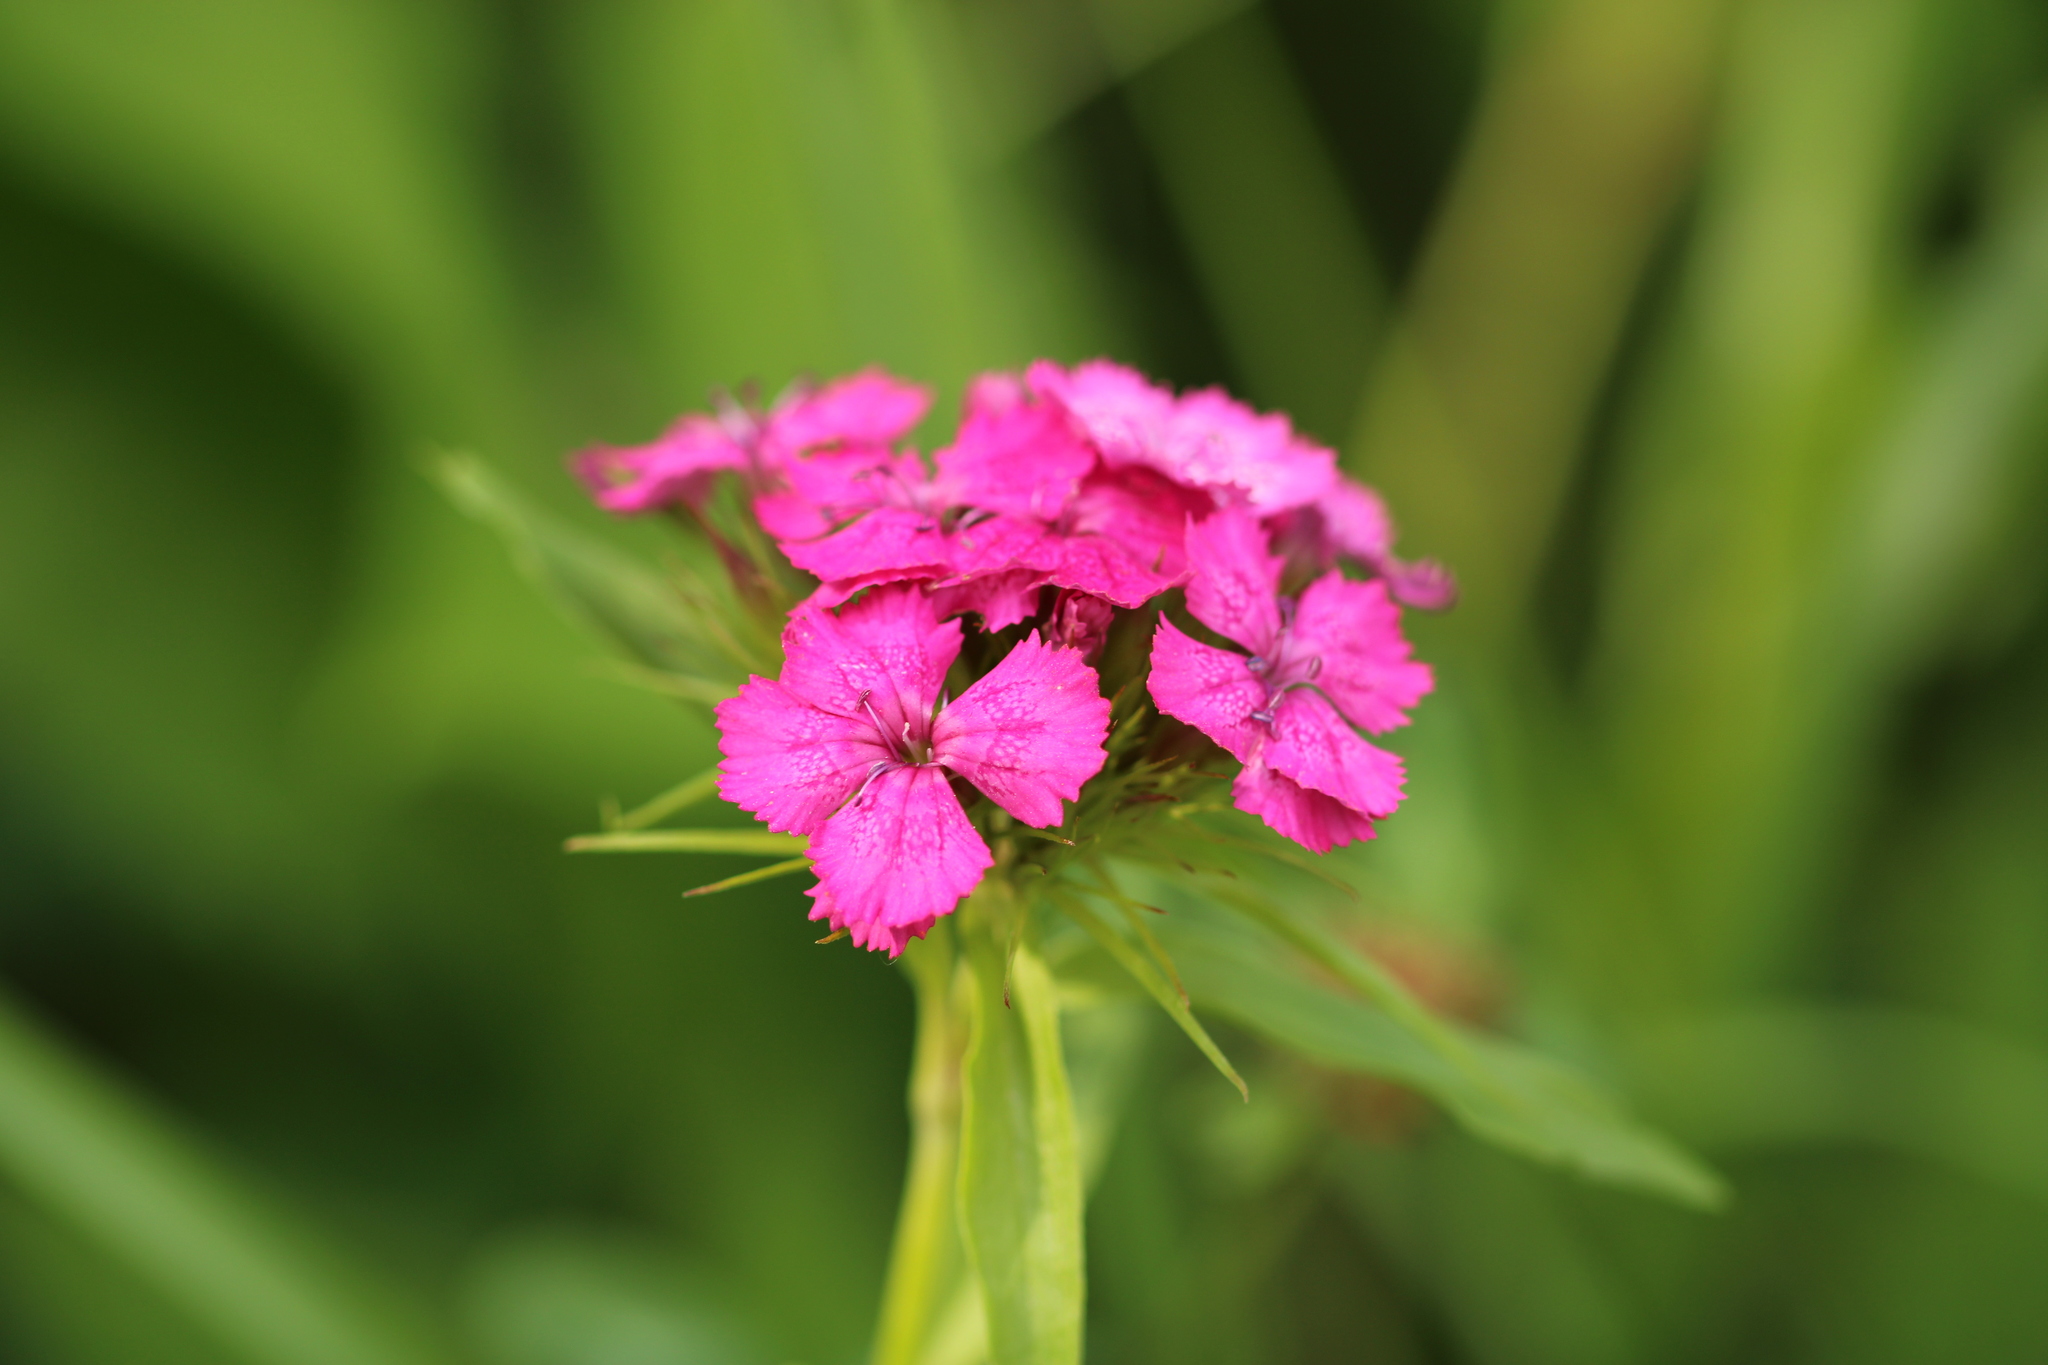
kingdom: Plantae
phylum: Tracheophyta
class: Magnoliopsida
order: Caryophyllales
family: Caryophyllaceae
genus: Dianthus
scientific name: Dianthus barbatus
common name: Sweet-william
